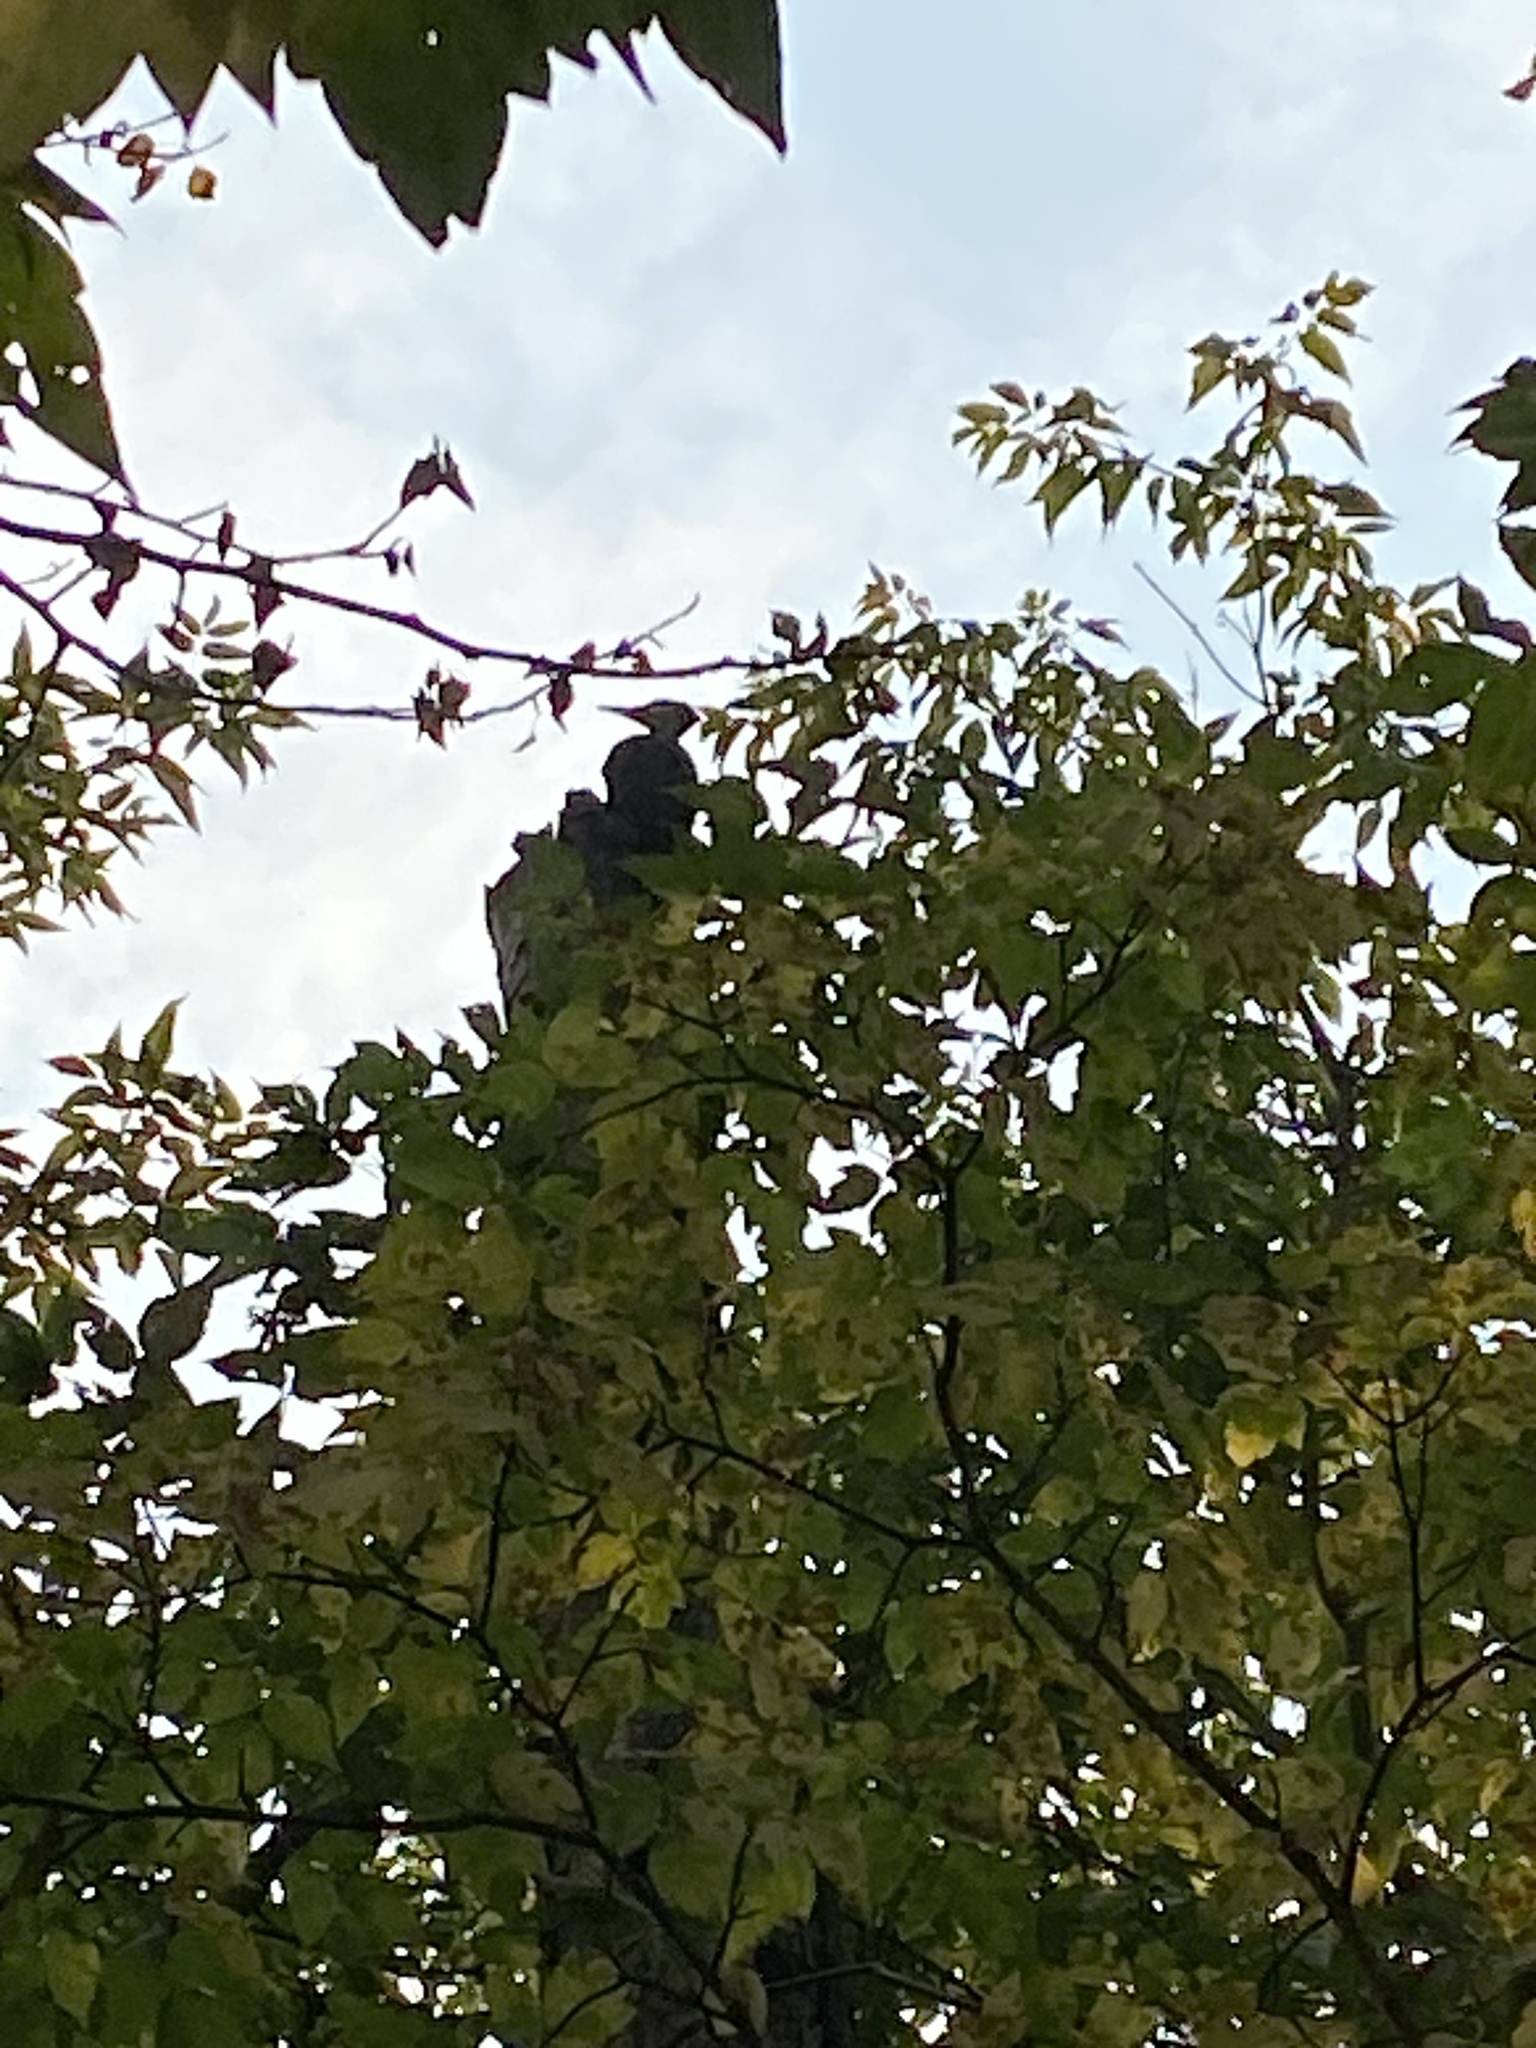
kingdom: Animalia
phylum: Chordata
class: Aves
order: Piciformes
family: Picidae
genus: Dryocopus
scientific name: Dryocopus pileatus
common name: Pileated woodpecker
